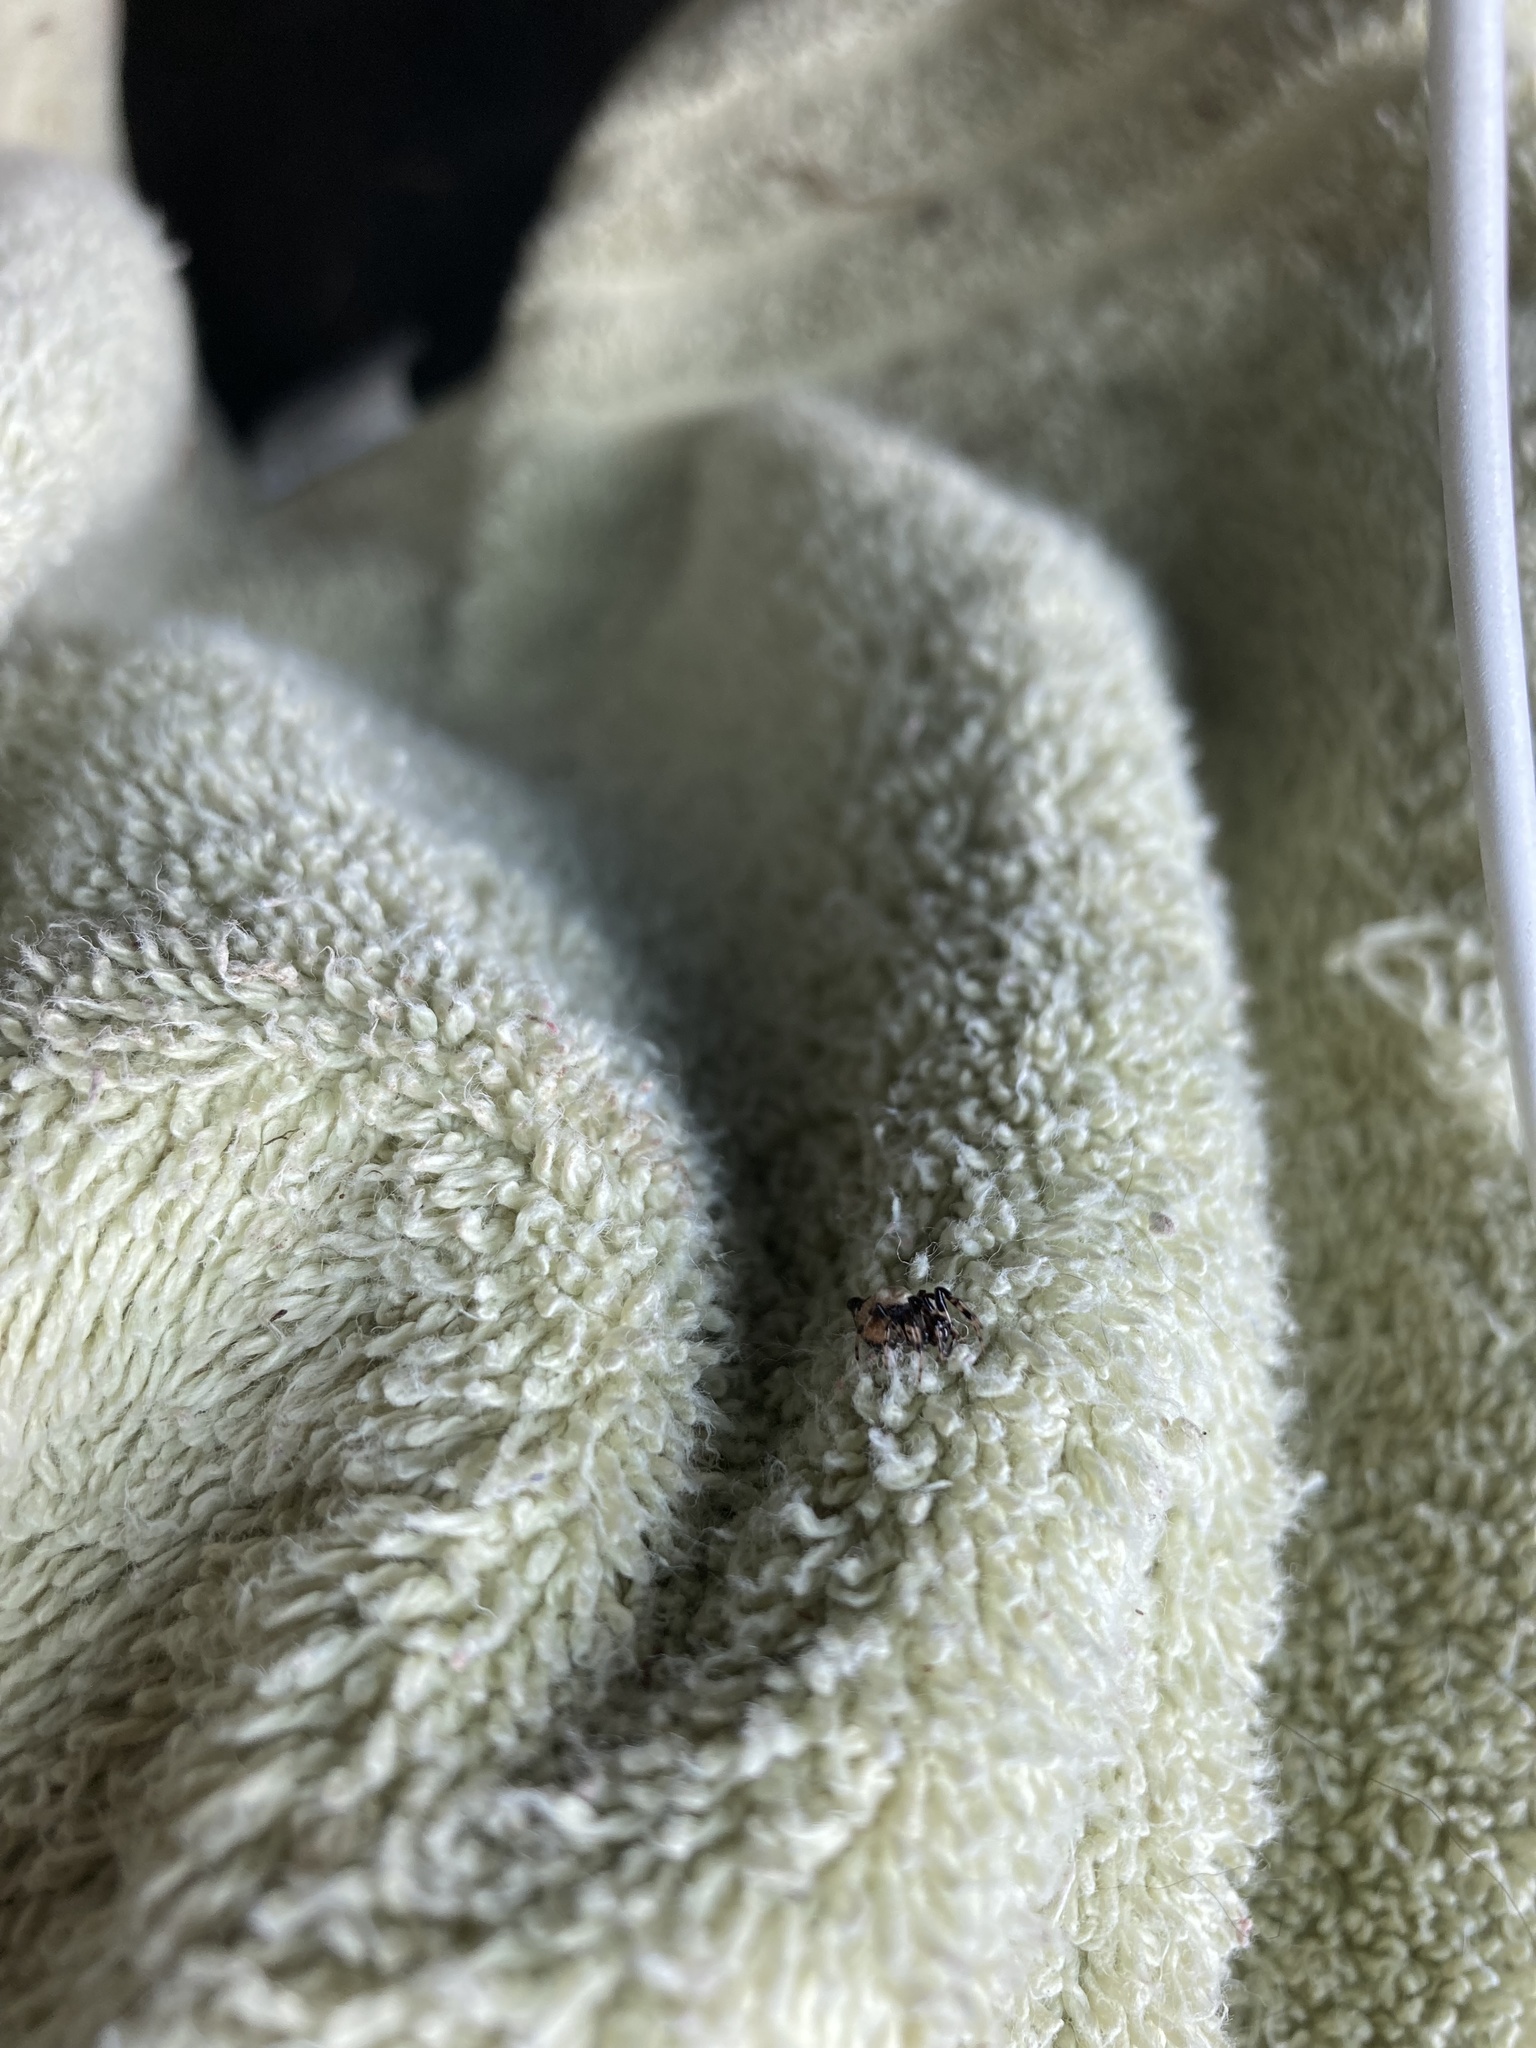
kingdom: Animalia
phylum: Arthropoda
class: Arachnida
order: Araneae
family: Araneidae
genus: Cyclosa
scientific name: Cyclosa turbinata
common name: Orb weavers
